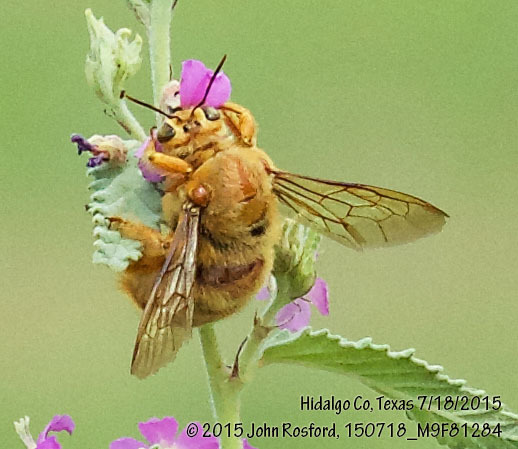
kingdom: Animalia
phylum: Arthropoda
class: Insecta
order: Hymenoptera
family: Apidae
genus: Xylocopa
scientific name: Xylocopa griswoldi
